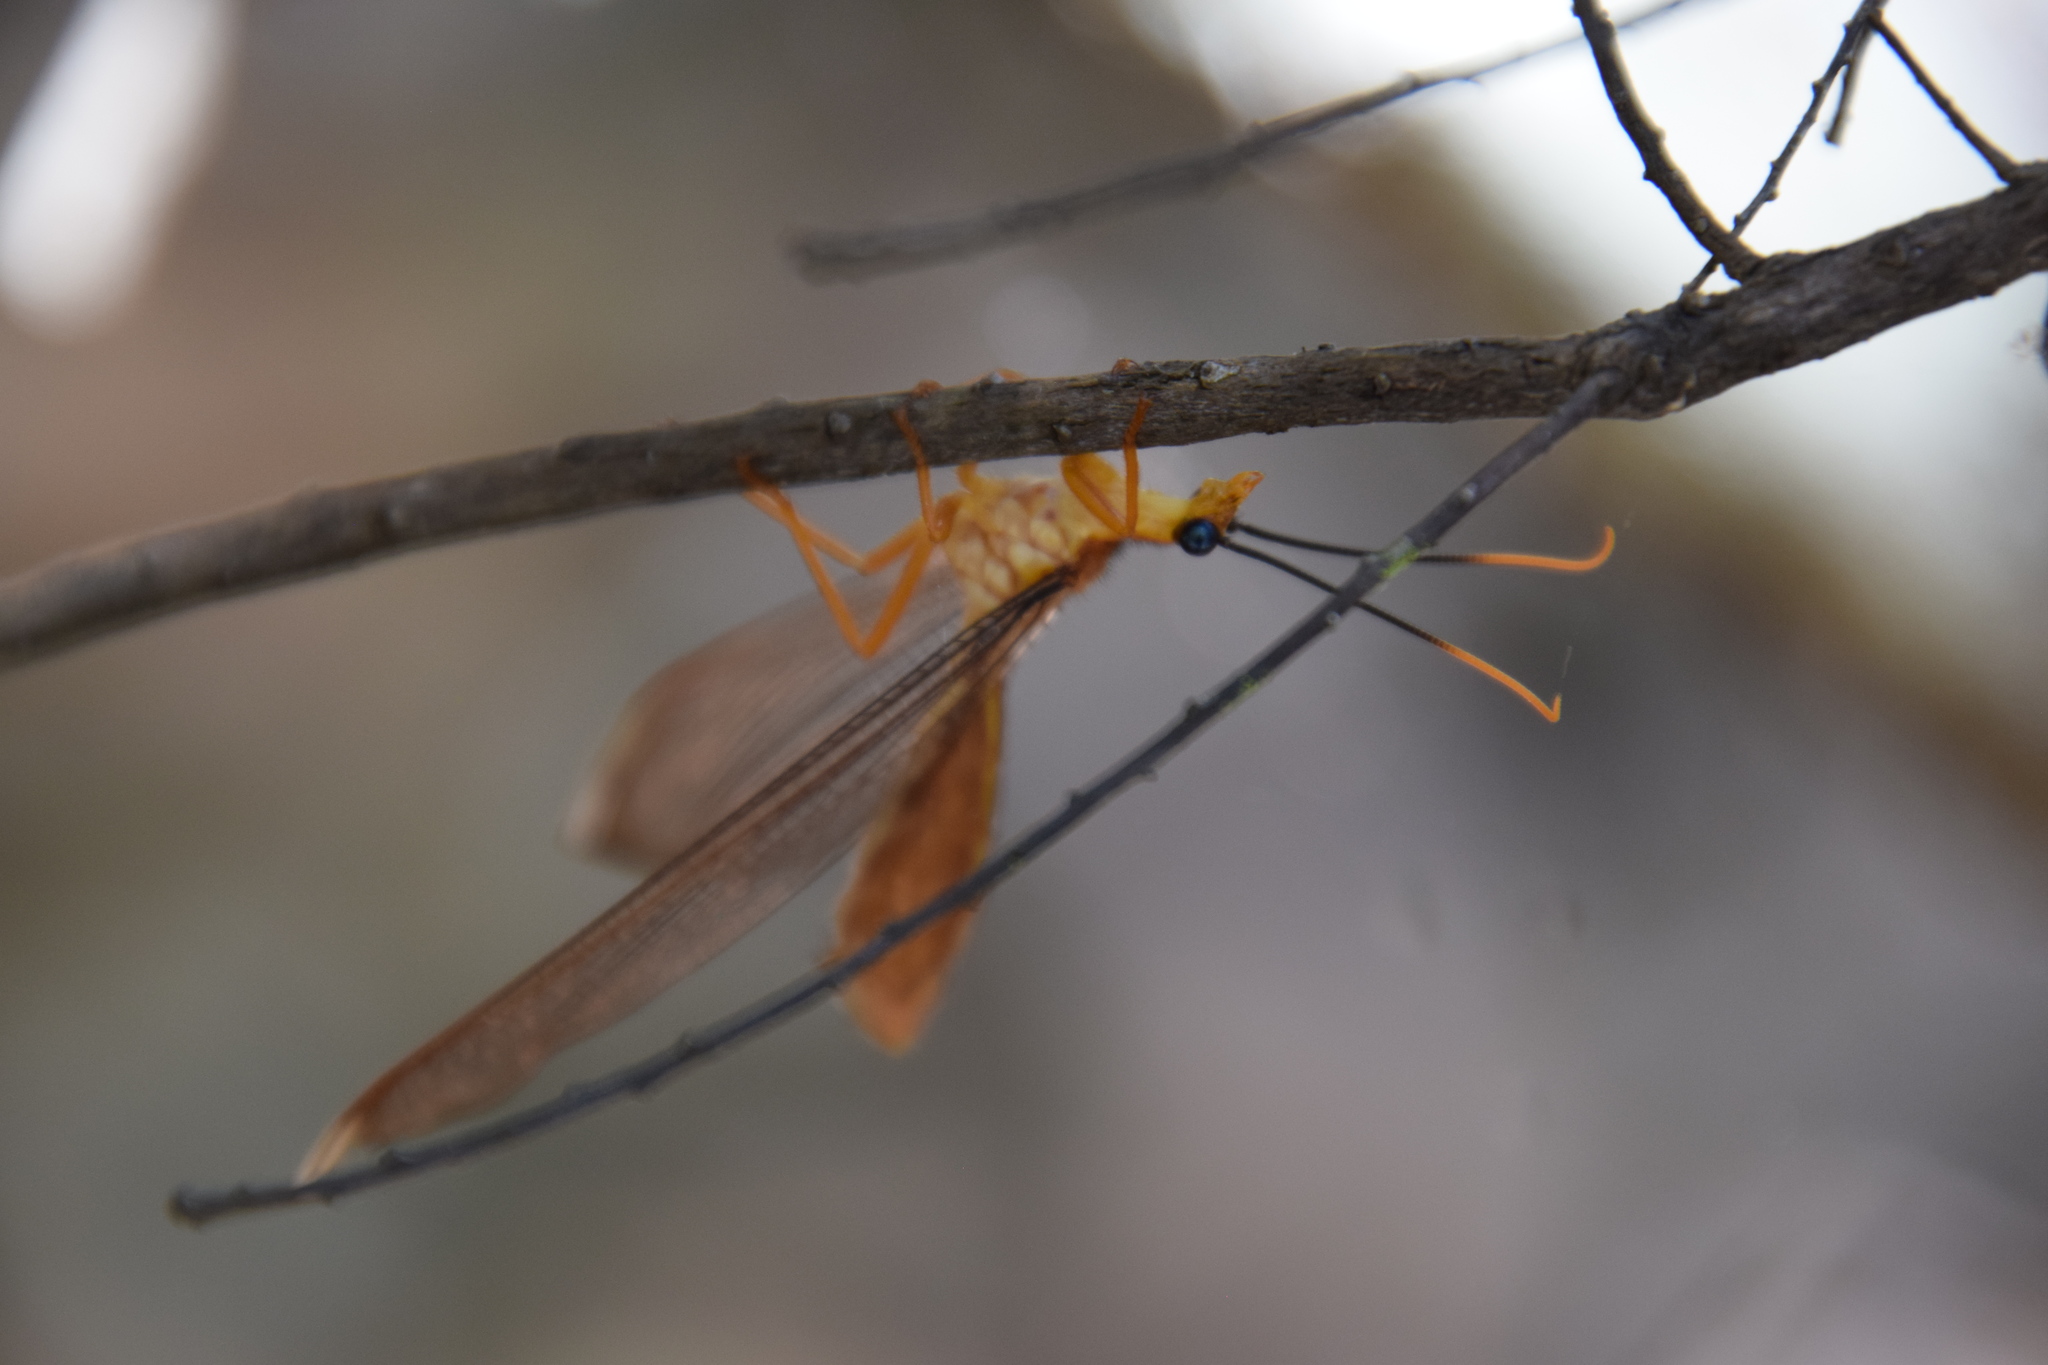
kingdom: Animalia
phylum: Arthropoda
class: Insecta
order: Neuroptera
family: Nymphidae
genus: Nymphes
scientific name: Nymphes myrmeleonoides
